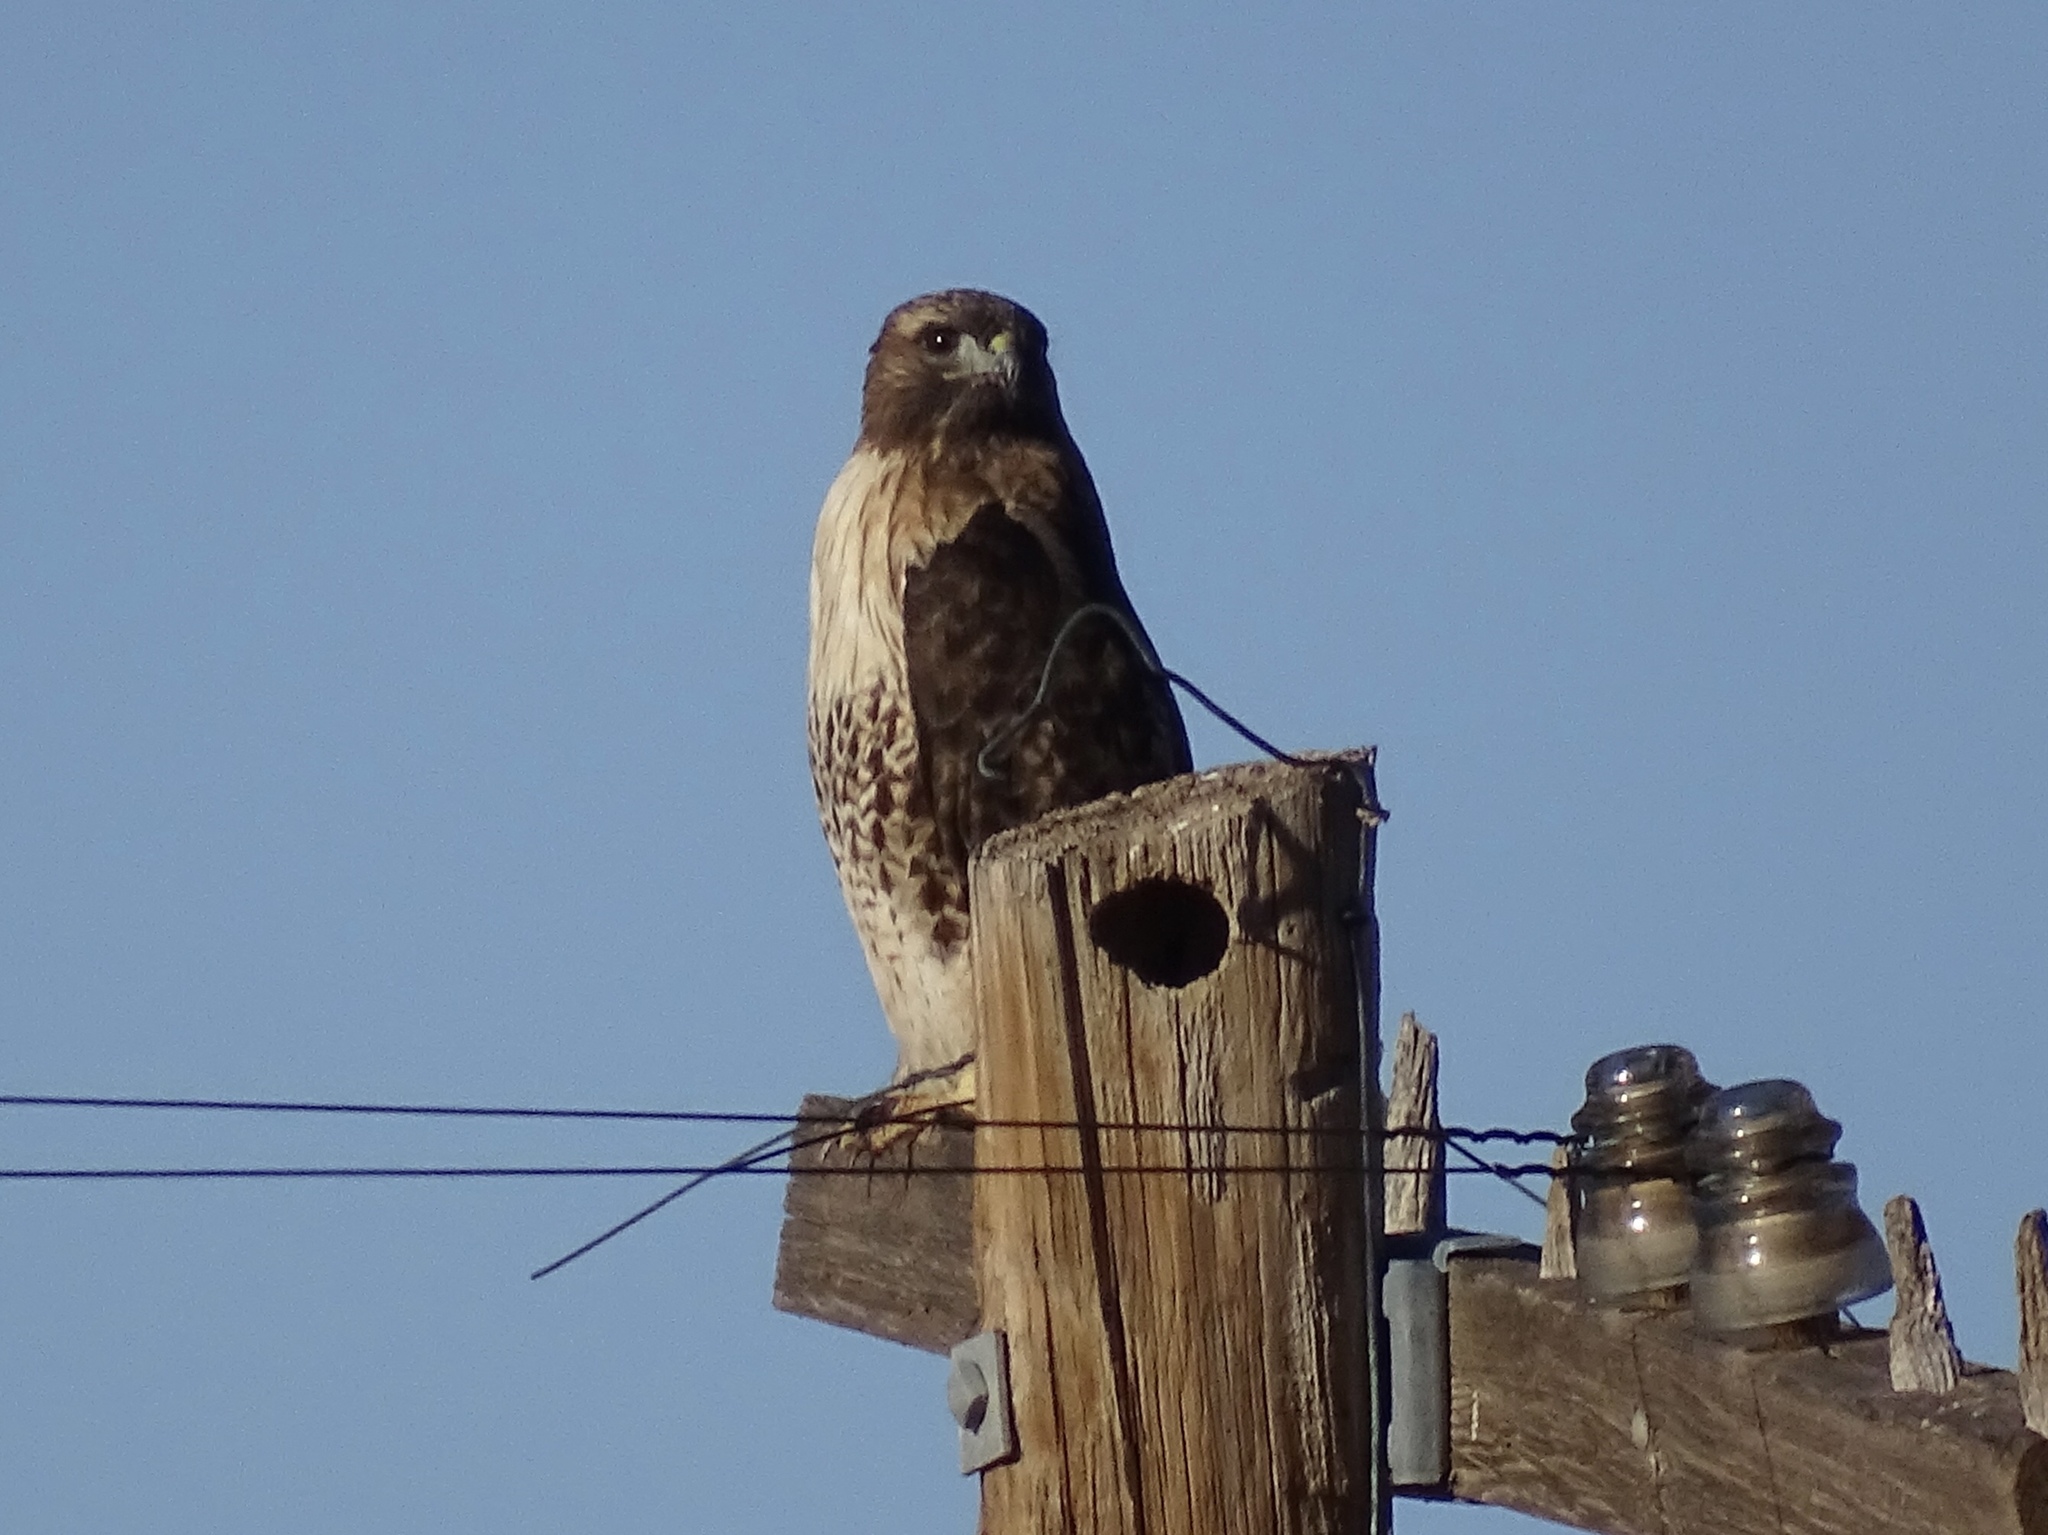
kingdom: Animalia
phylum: Chordata
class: Aves
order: Accipitriformes
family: Accipitridae
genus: Buteo
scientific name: Buteo jamaicensis
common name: Red-tailed hawk
